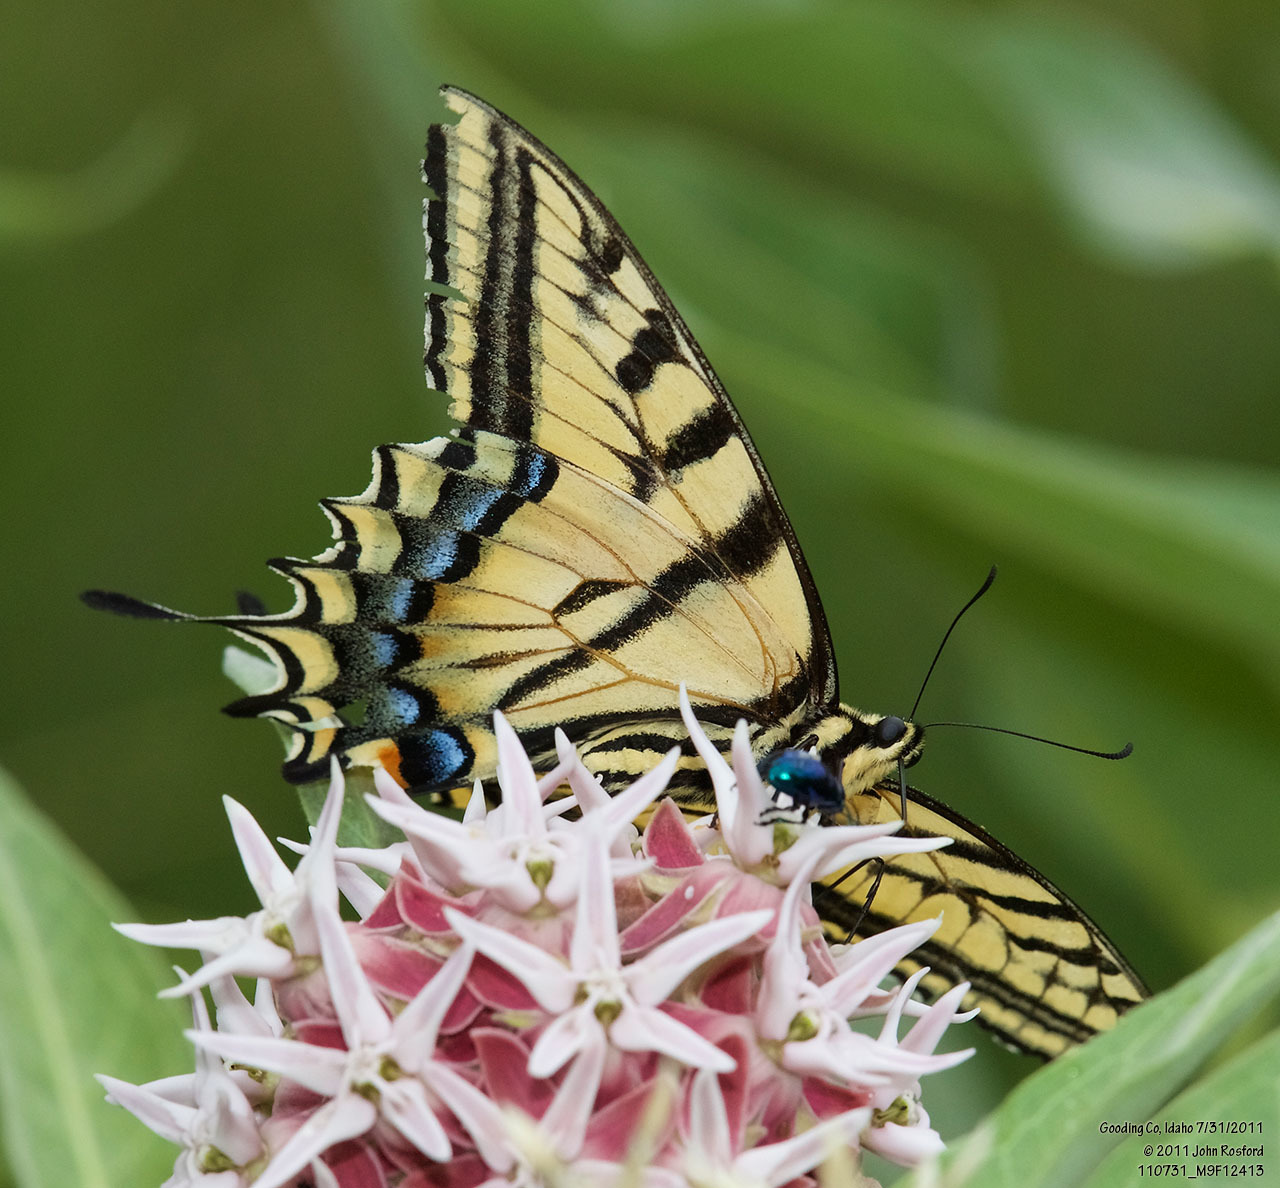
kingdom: Animalia
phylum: Arthropoda
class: Insecta
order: Lepidoptera
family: Papilionidae
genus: Papilio
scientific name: Papilio multicaudata
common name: Two-tailed tiger swallowtail
